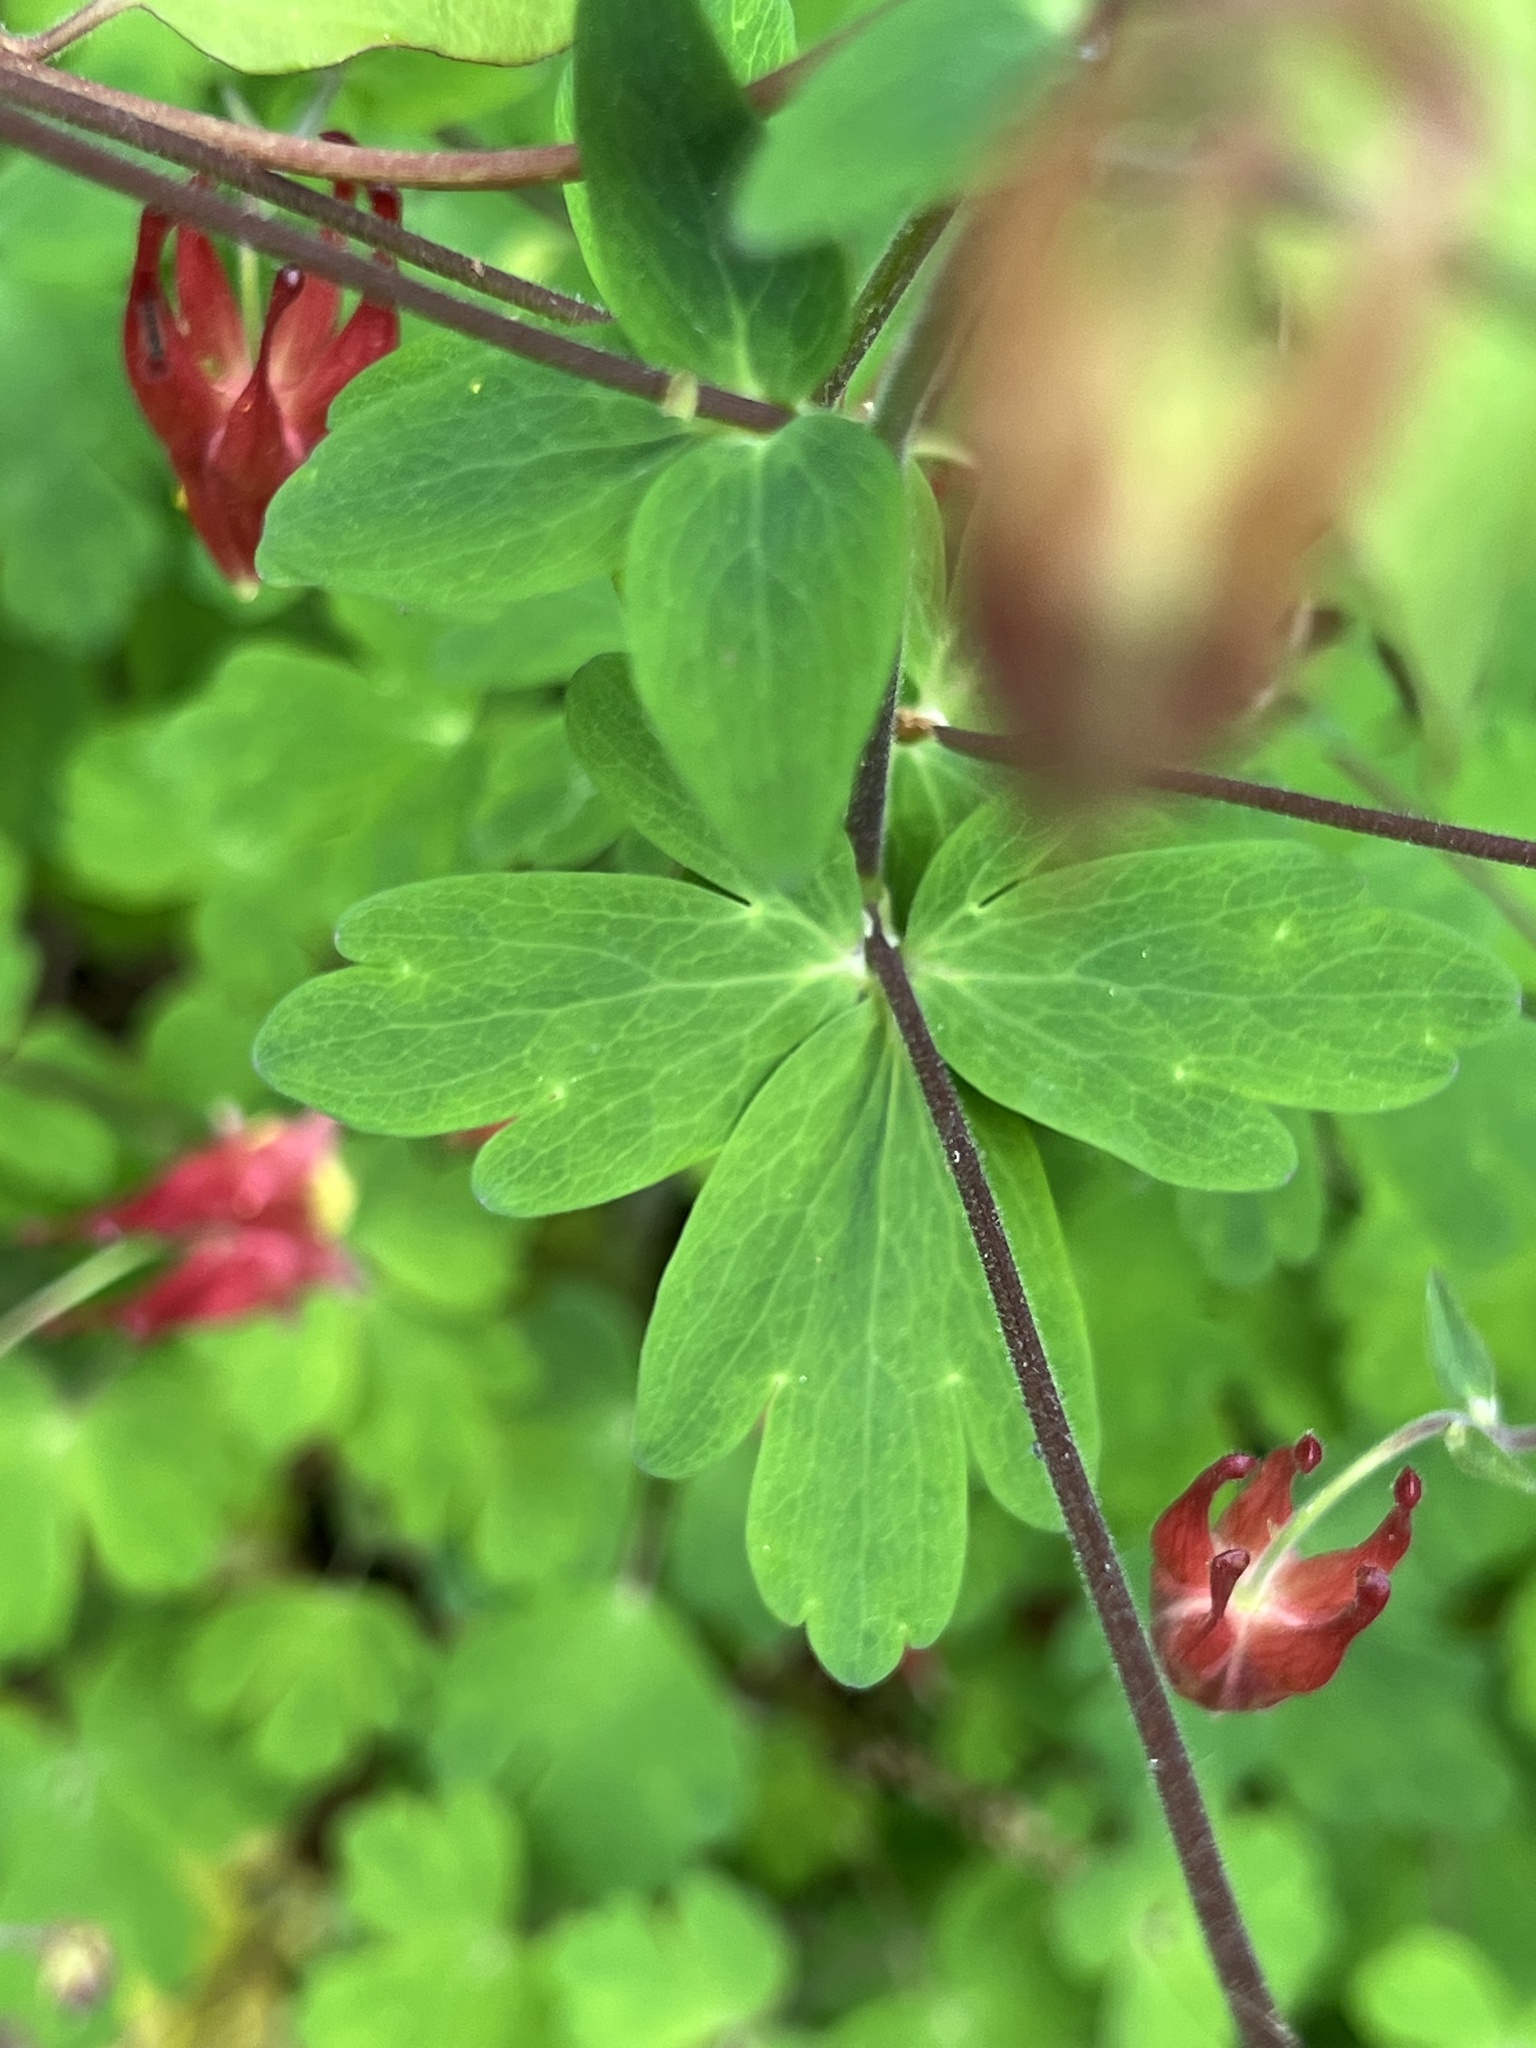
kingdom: Plantae
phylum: Tracheophyta
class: Magnoliopsida
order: Ranunculales
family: Ranunculaceae
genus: Aquilegia
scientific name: Aquilegia canadensis
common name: American columbine
